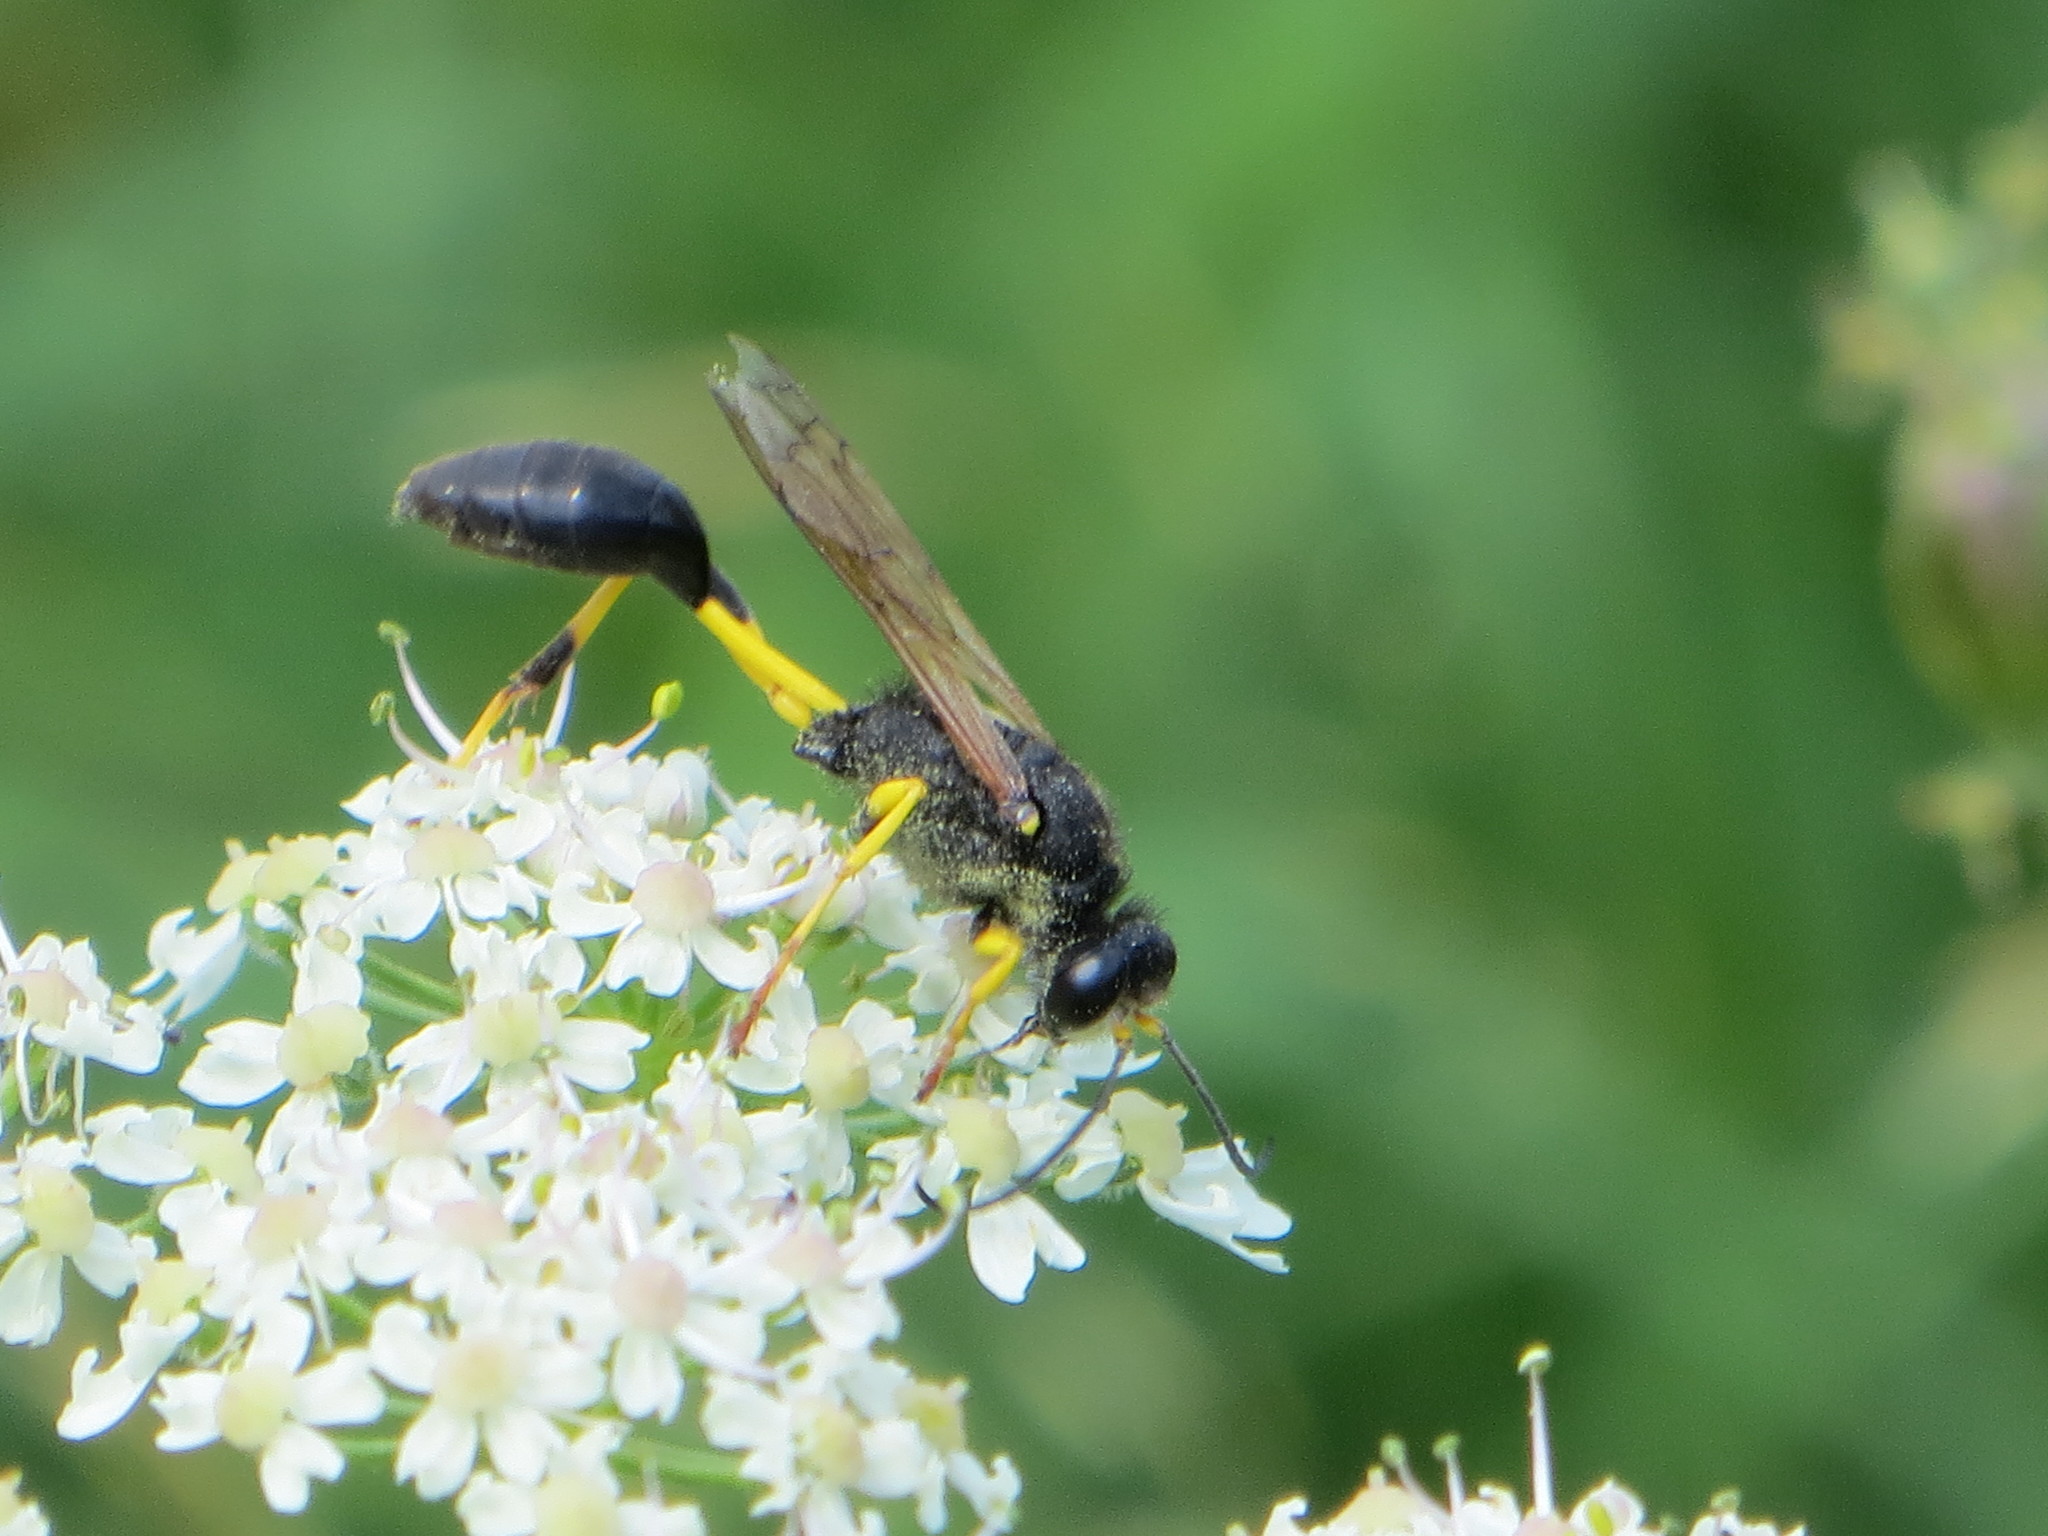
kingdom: Animalia
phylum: Arthropoda
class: Insecta
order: Hymenoptera
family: Sphecidae
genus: Sceliphron
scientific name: Sceliphron destillatorium
